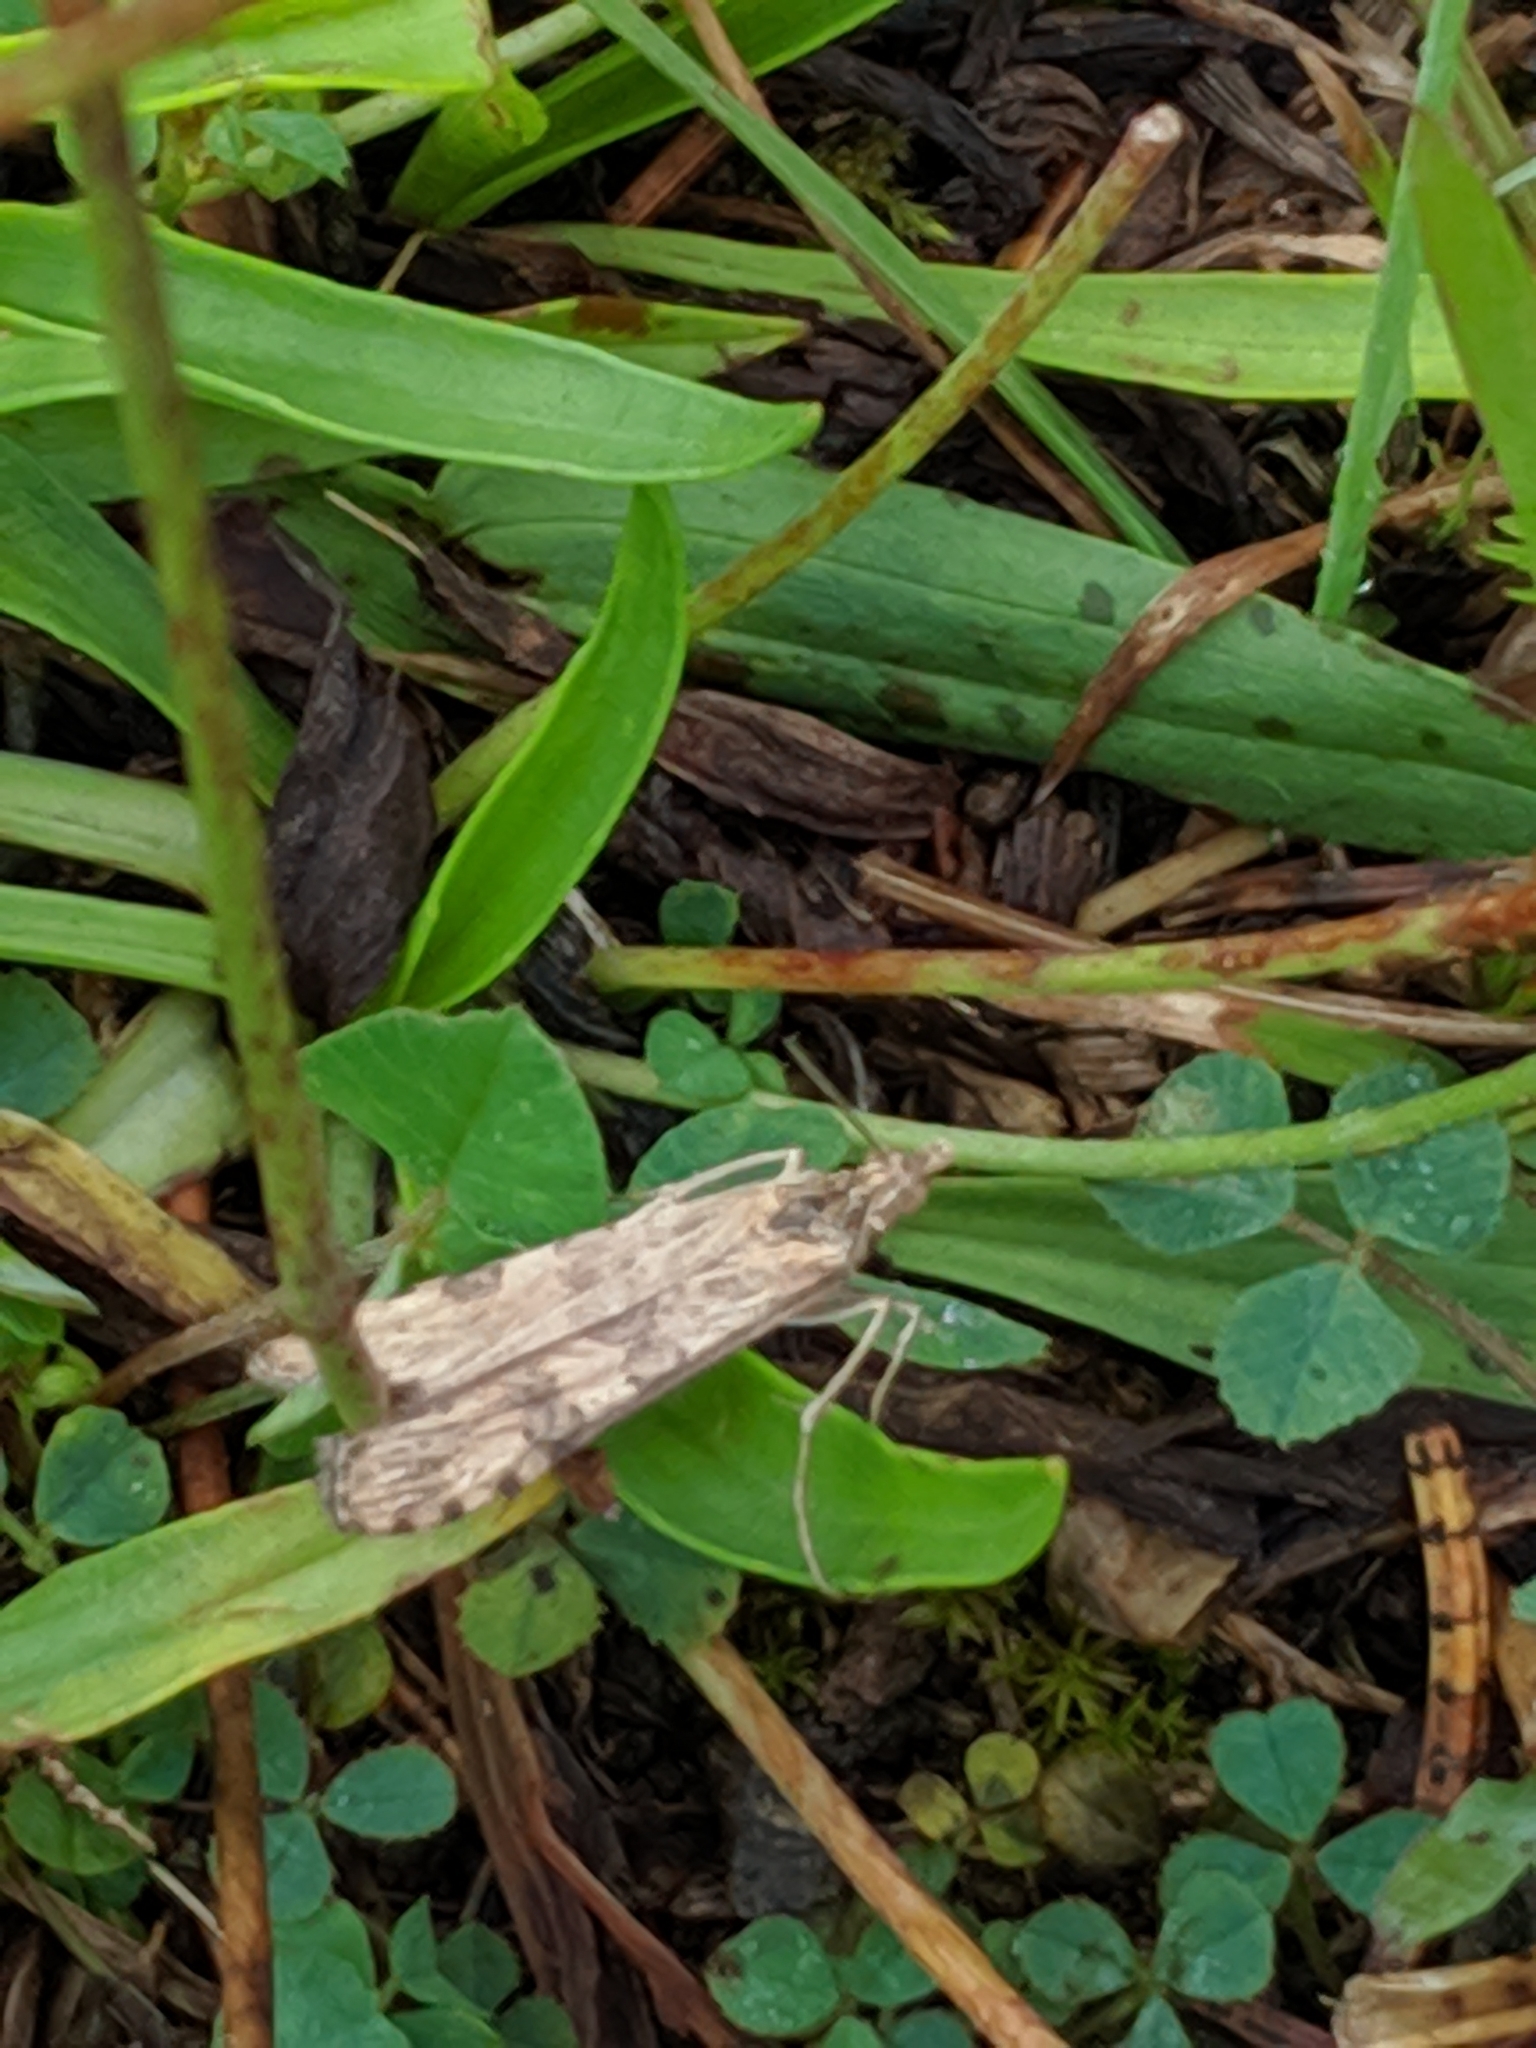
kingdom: Animalia
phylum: Arthropoda
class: Insecta
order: Lepidoptera
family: Crambidae
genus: Nomophila
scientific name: Nomophila nearctica
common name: American rush veneer
